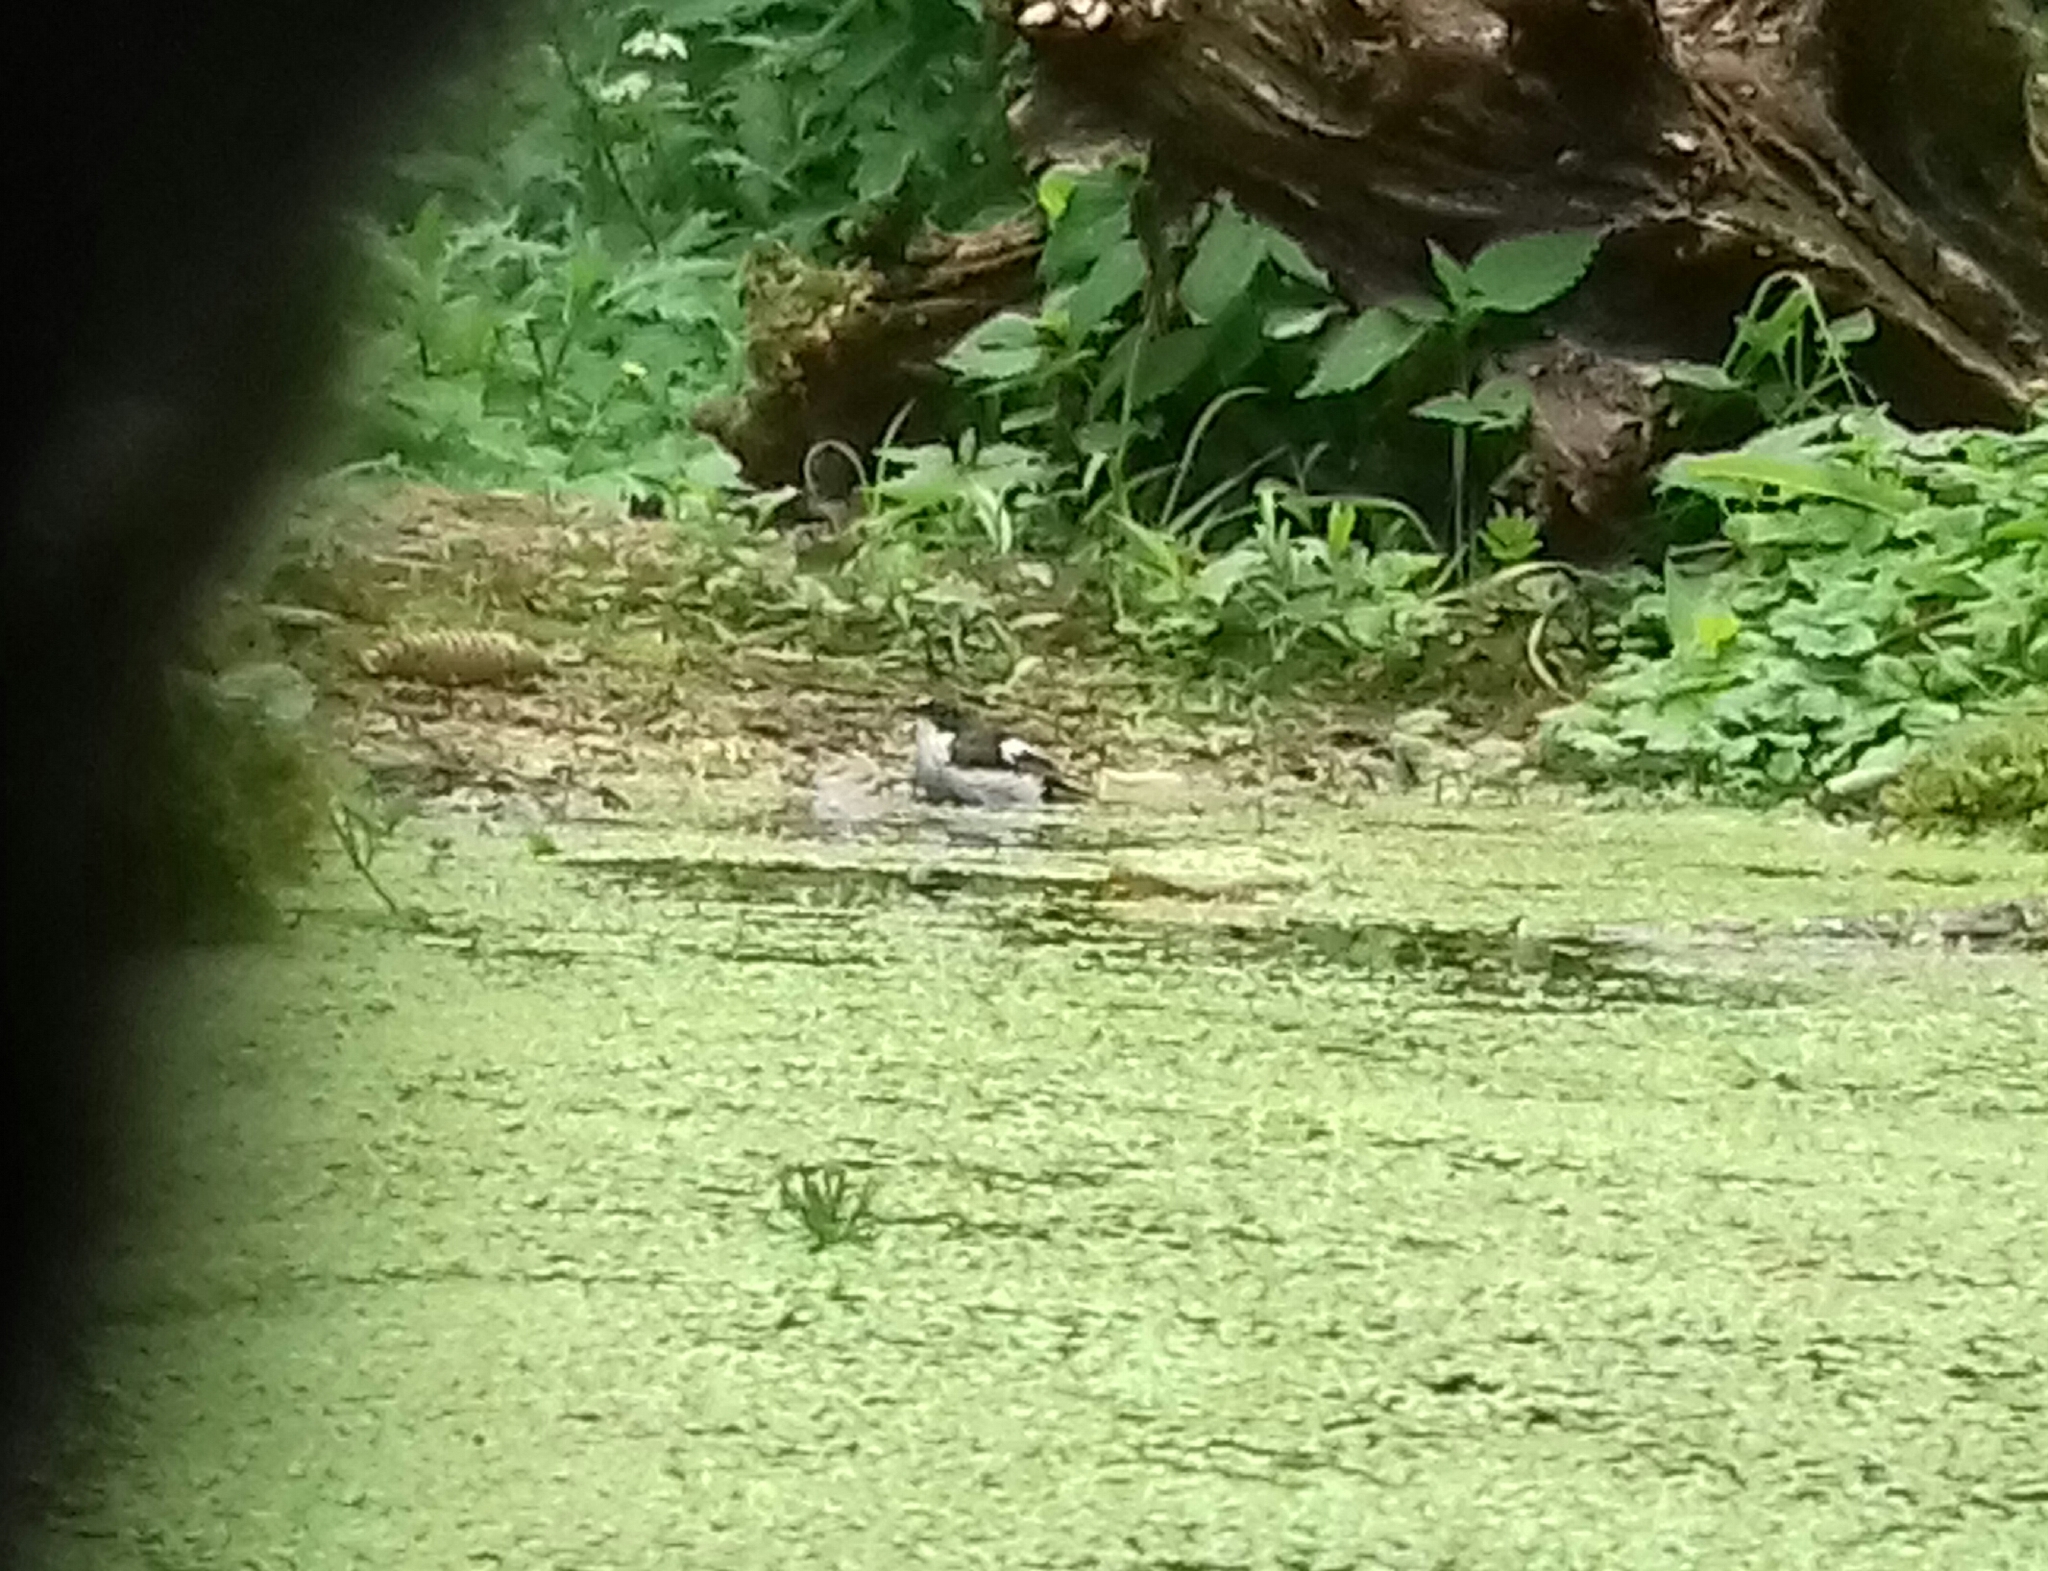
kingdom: Animalia
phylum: Chordata
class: Aves
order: Passeriformes
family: Muscicapidae
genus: Ficedula
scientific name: Ficedula hypoleuca
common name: European pied flycatcher
